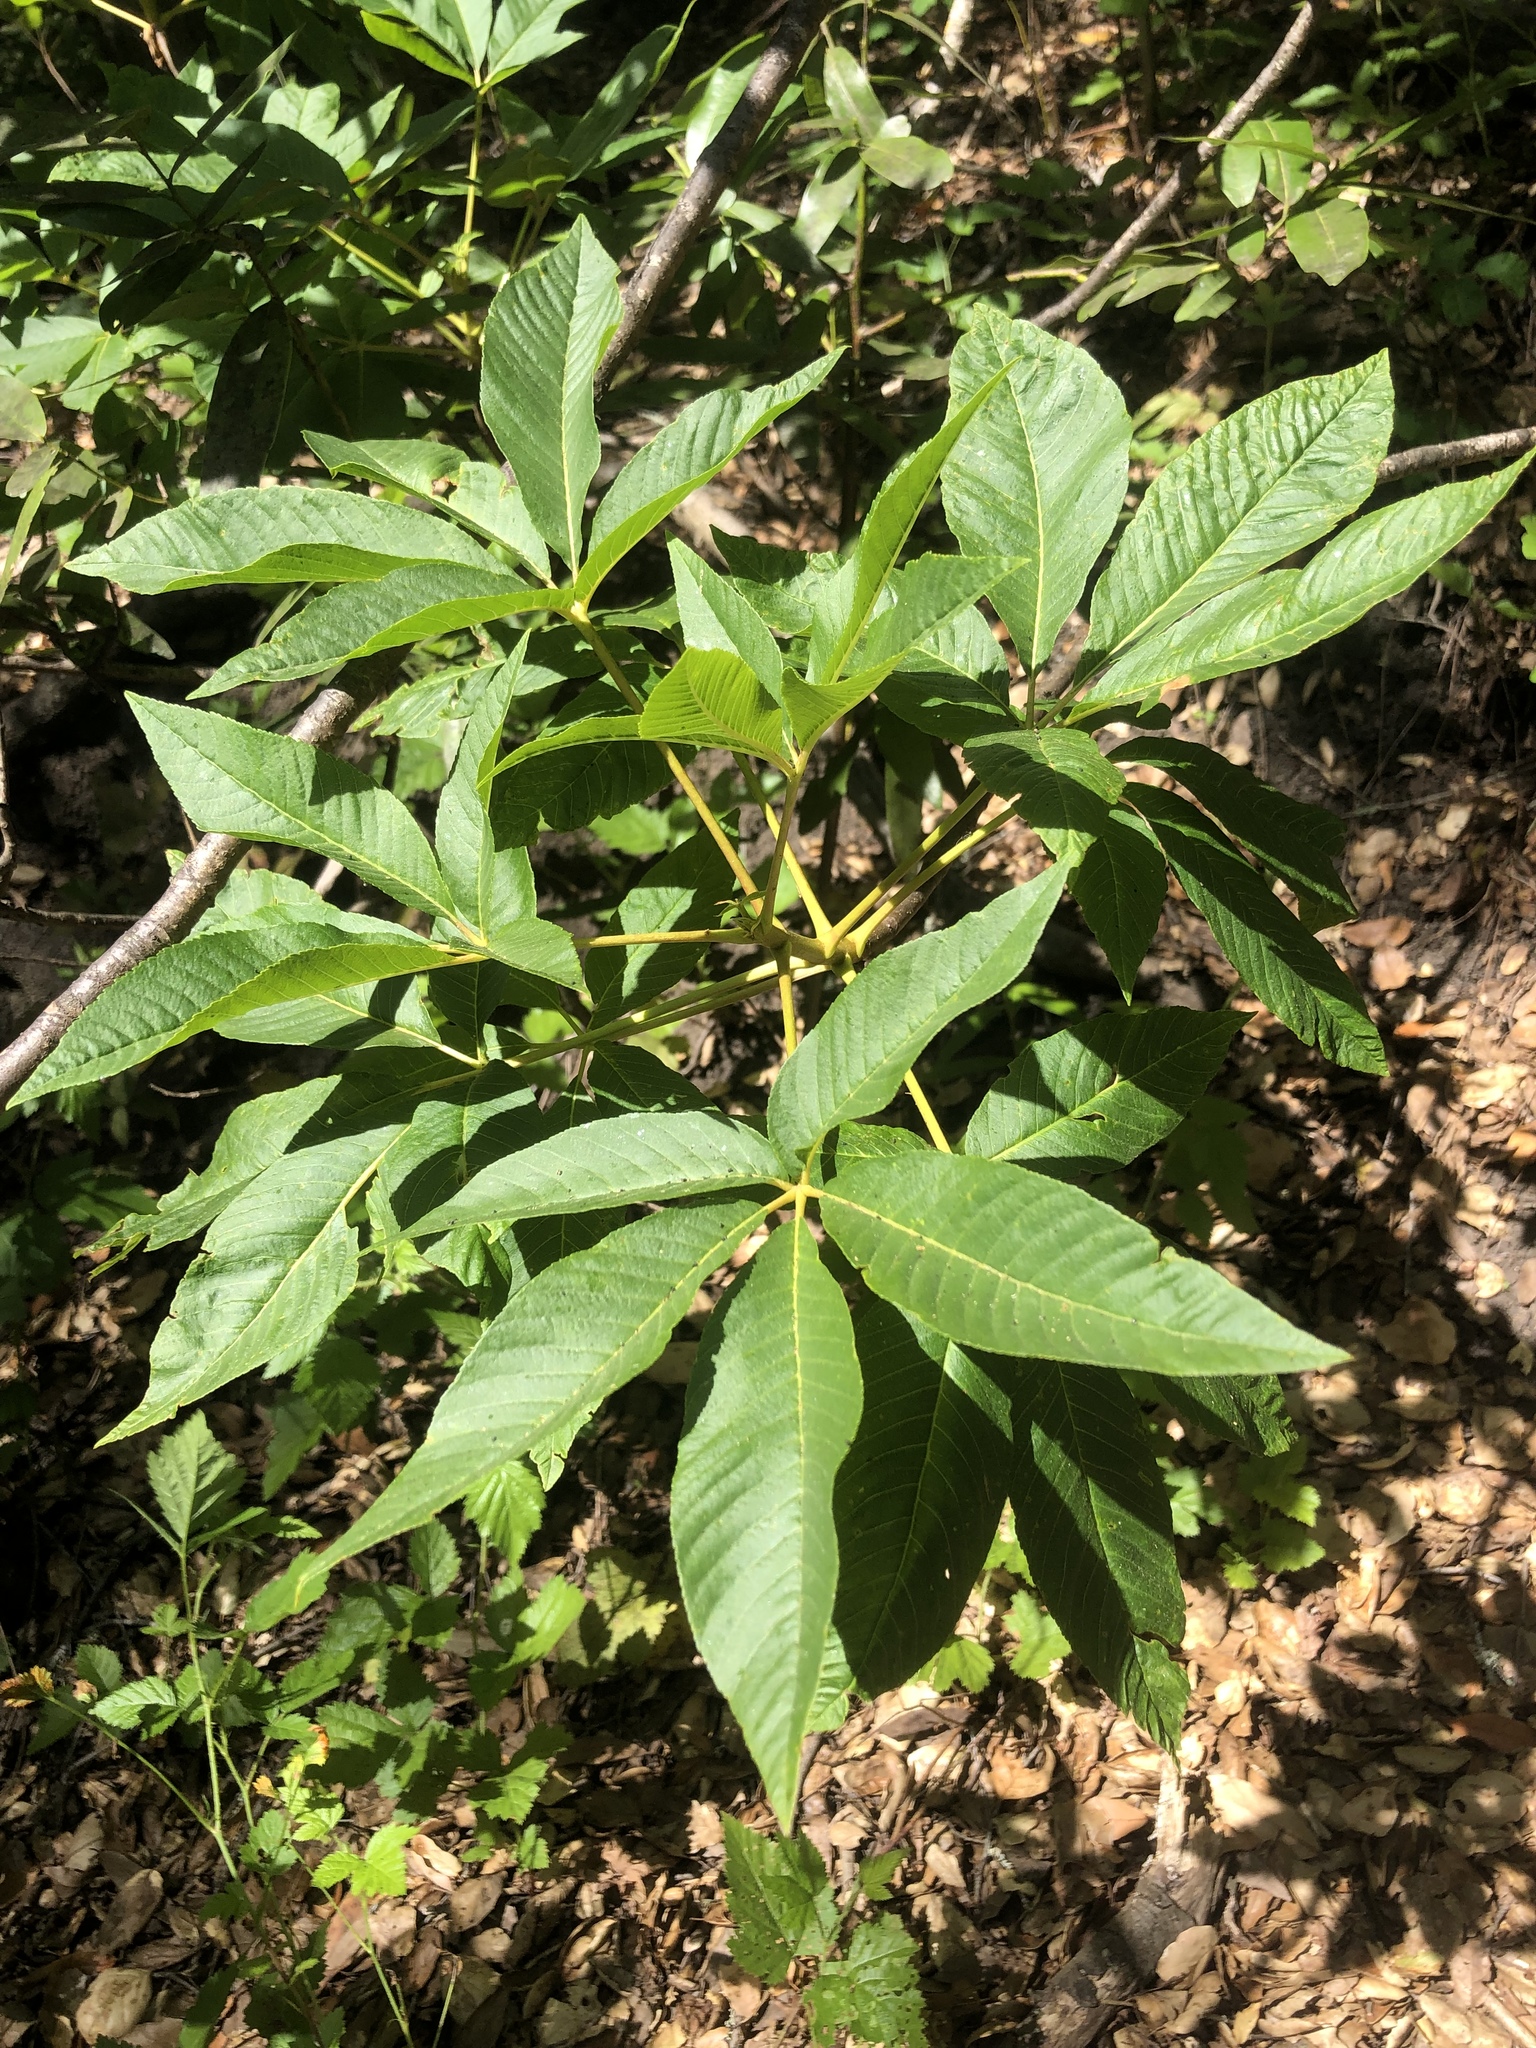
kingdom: Plantae
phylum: Tracheophyta
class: Magnoliopsida
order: Sapindales
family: Sapindaceae
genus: Aesculus
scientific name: Aesculus californica
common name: California buckeye
